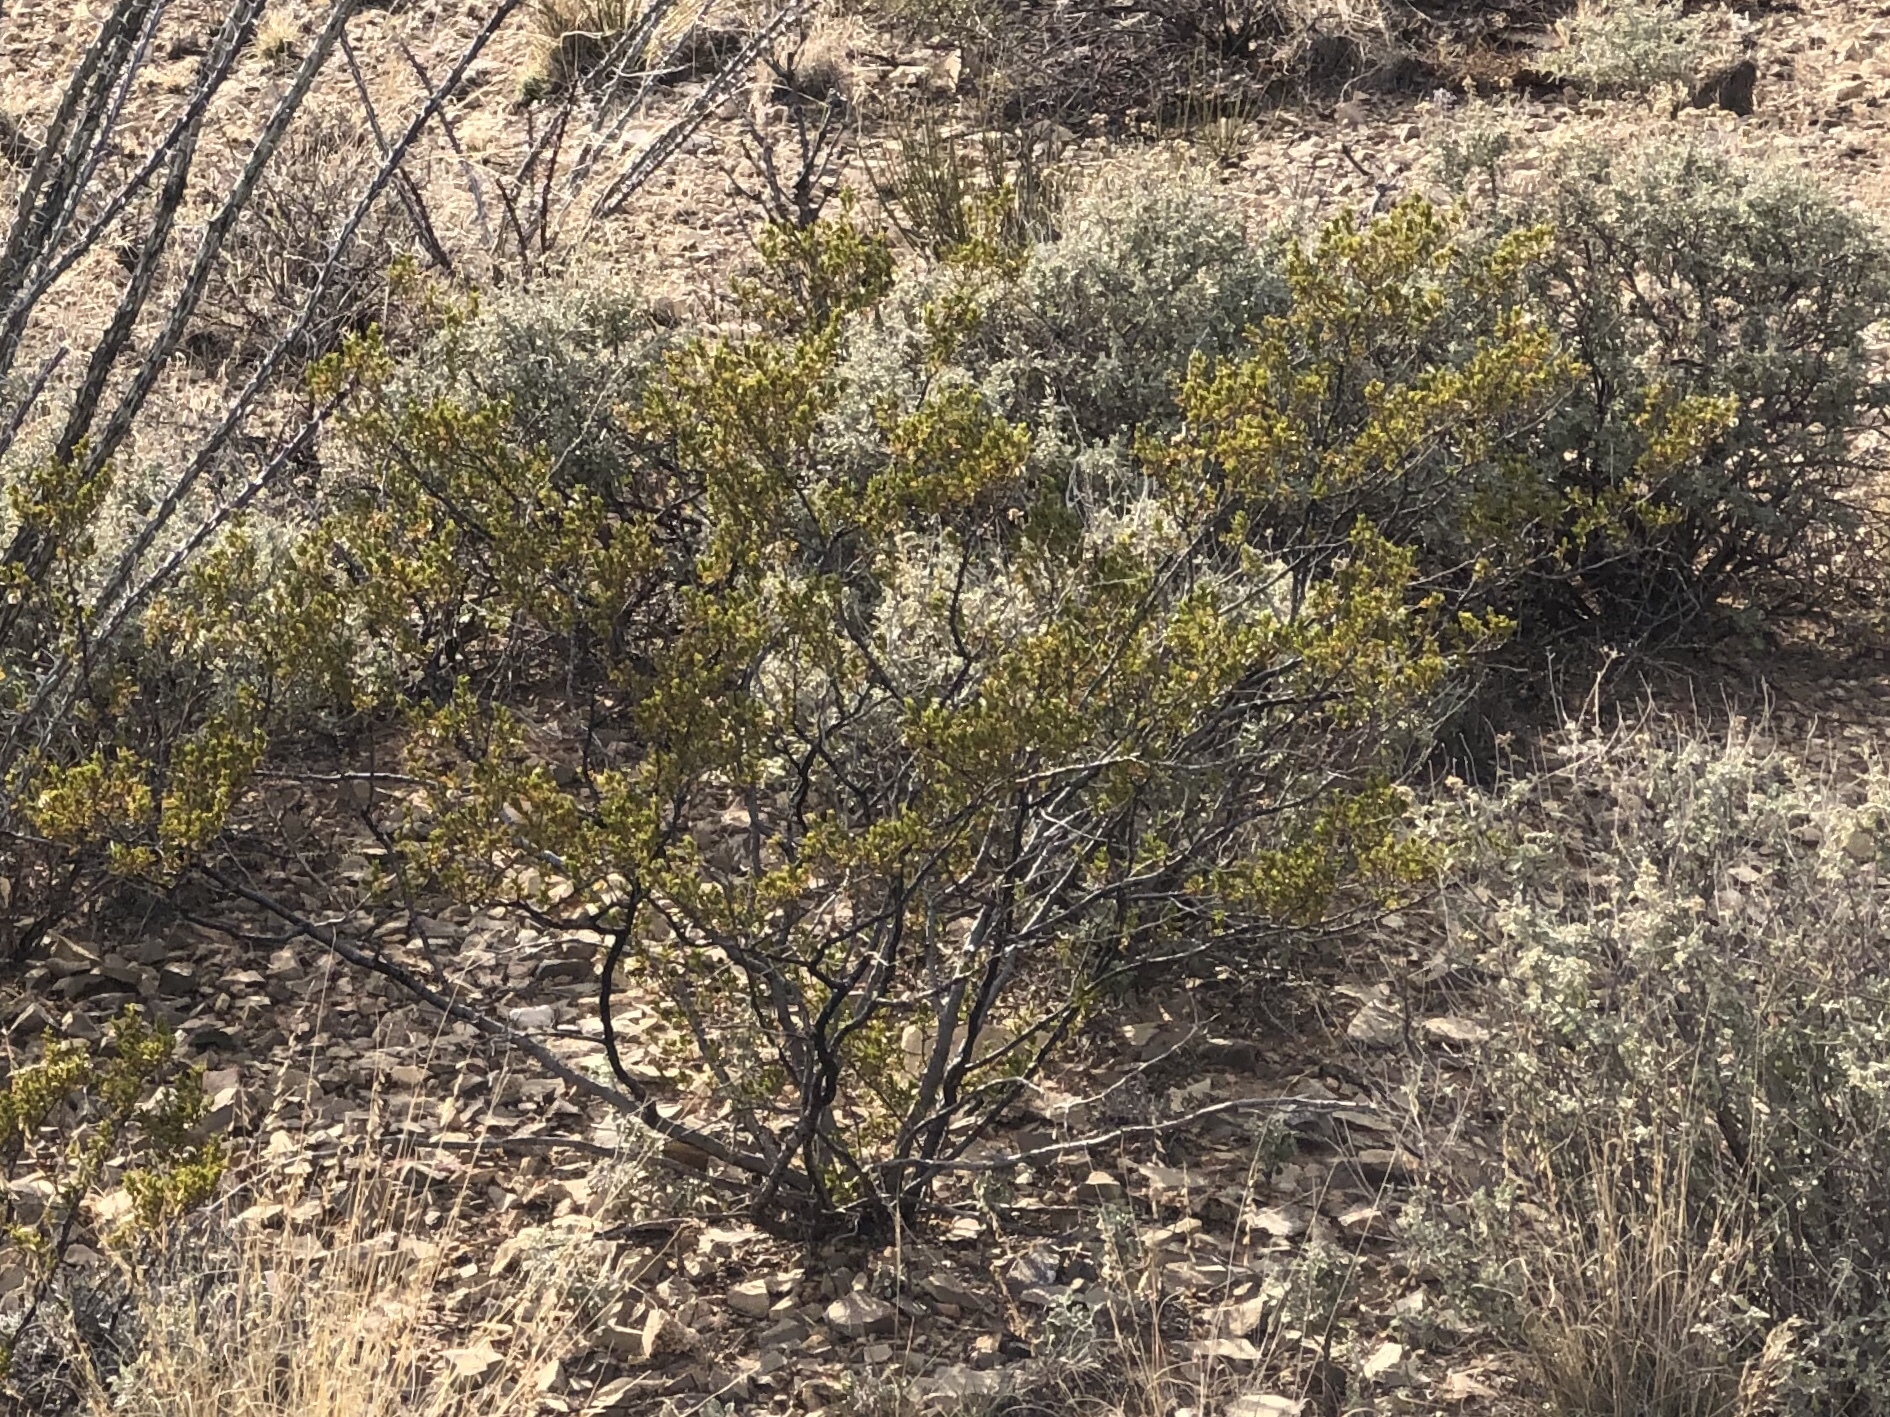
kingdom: Plantae
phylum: Tracheophyta
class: Magnoliopsida
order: Zygophyllales
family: Zygophyllaceae
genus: Larrea
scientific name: Larrea tridentata
